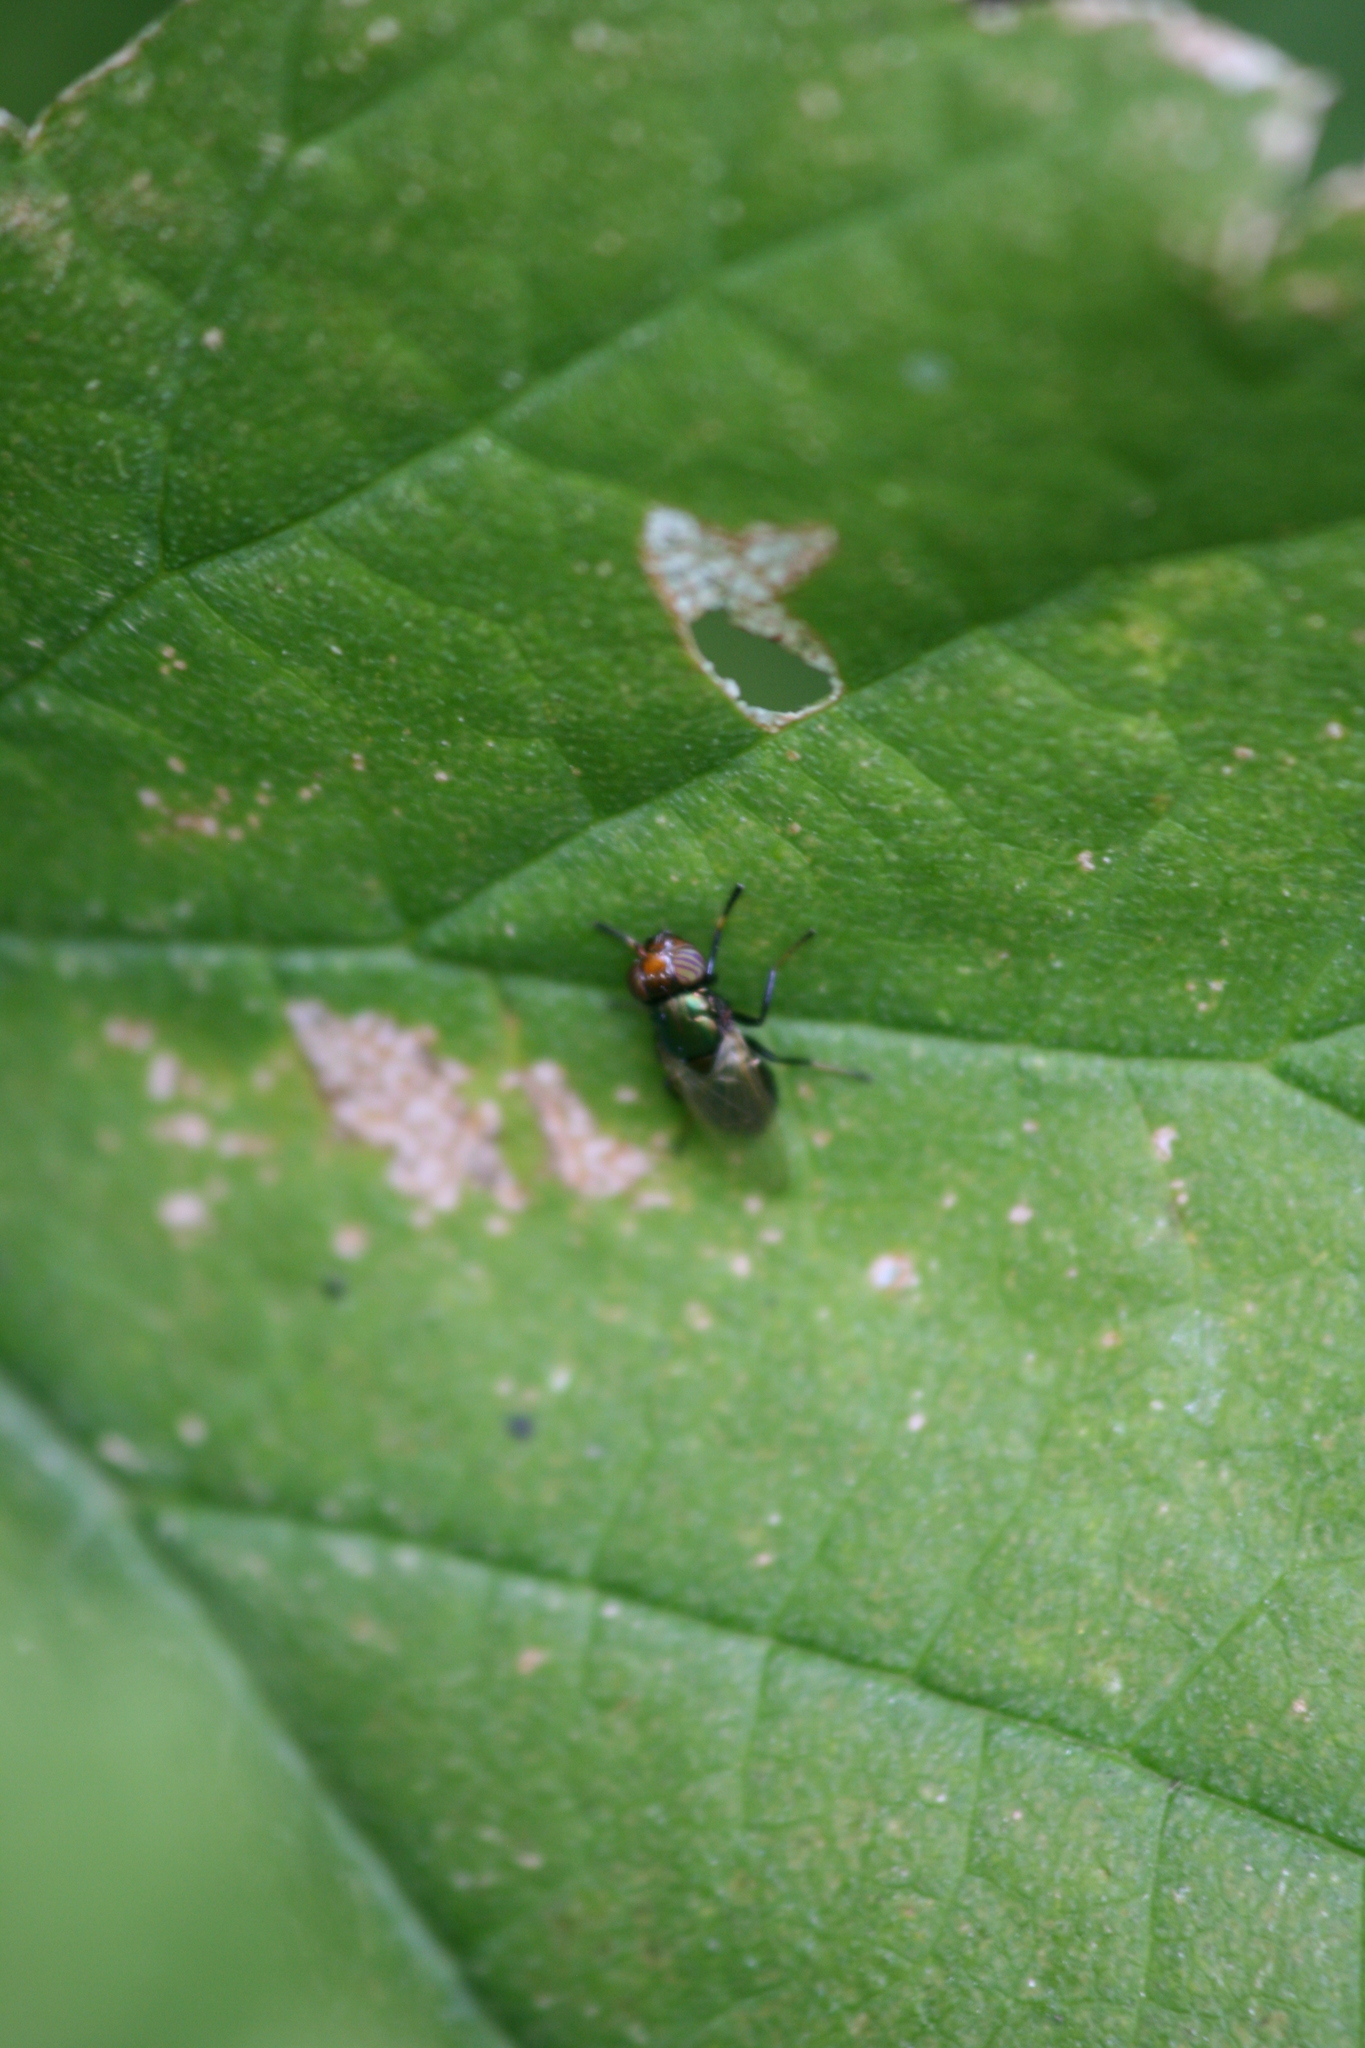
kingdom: Animalia
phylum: Arthropoda
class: Insecta
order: Diptera
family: Ulidiidae
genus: Physiphora
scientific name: Physiphora alceae
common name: Picture-winged fly
